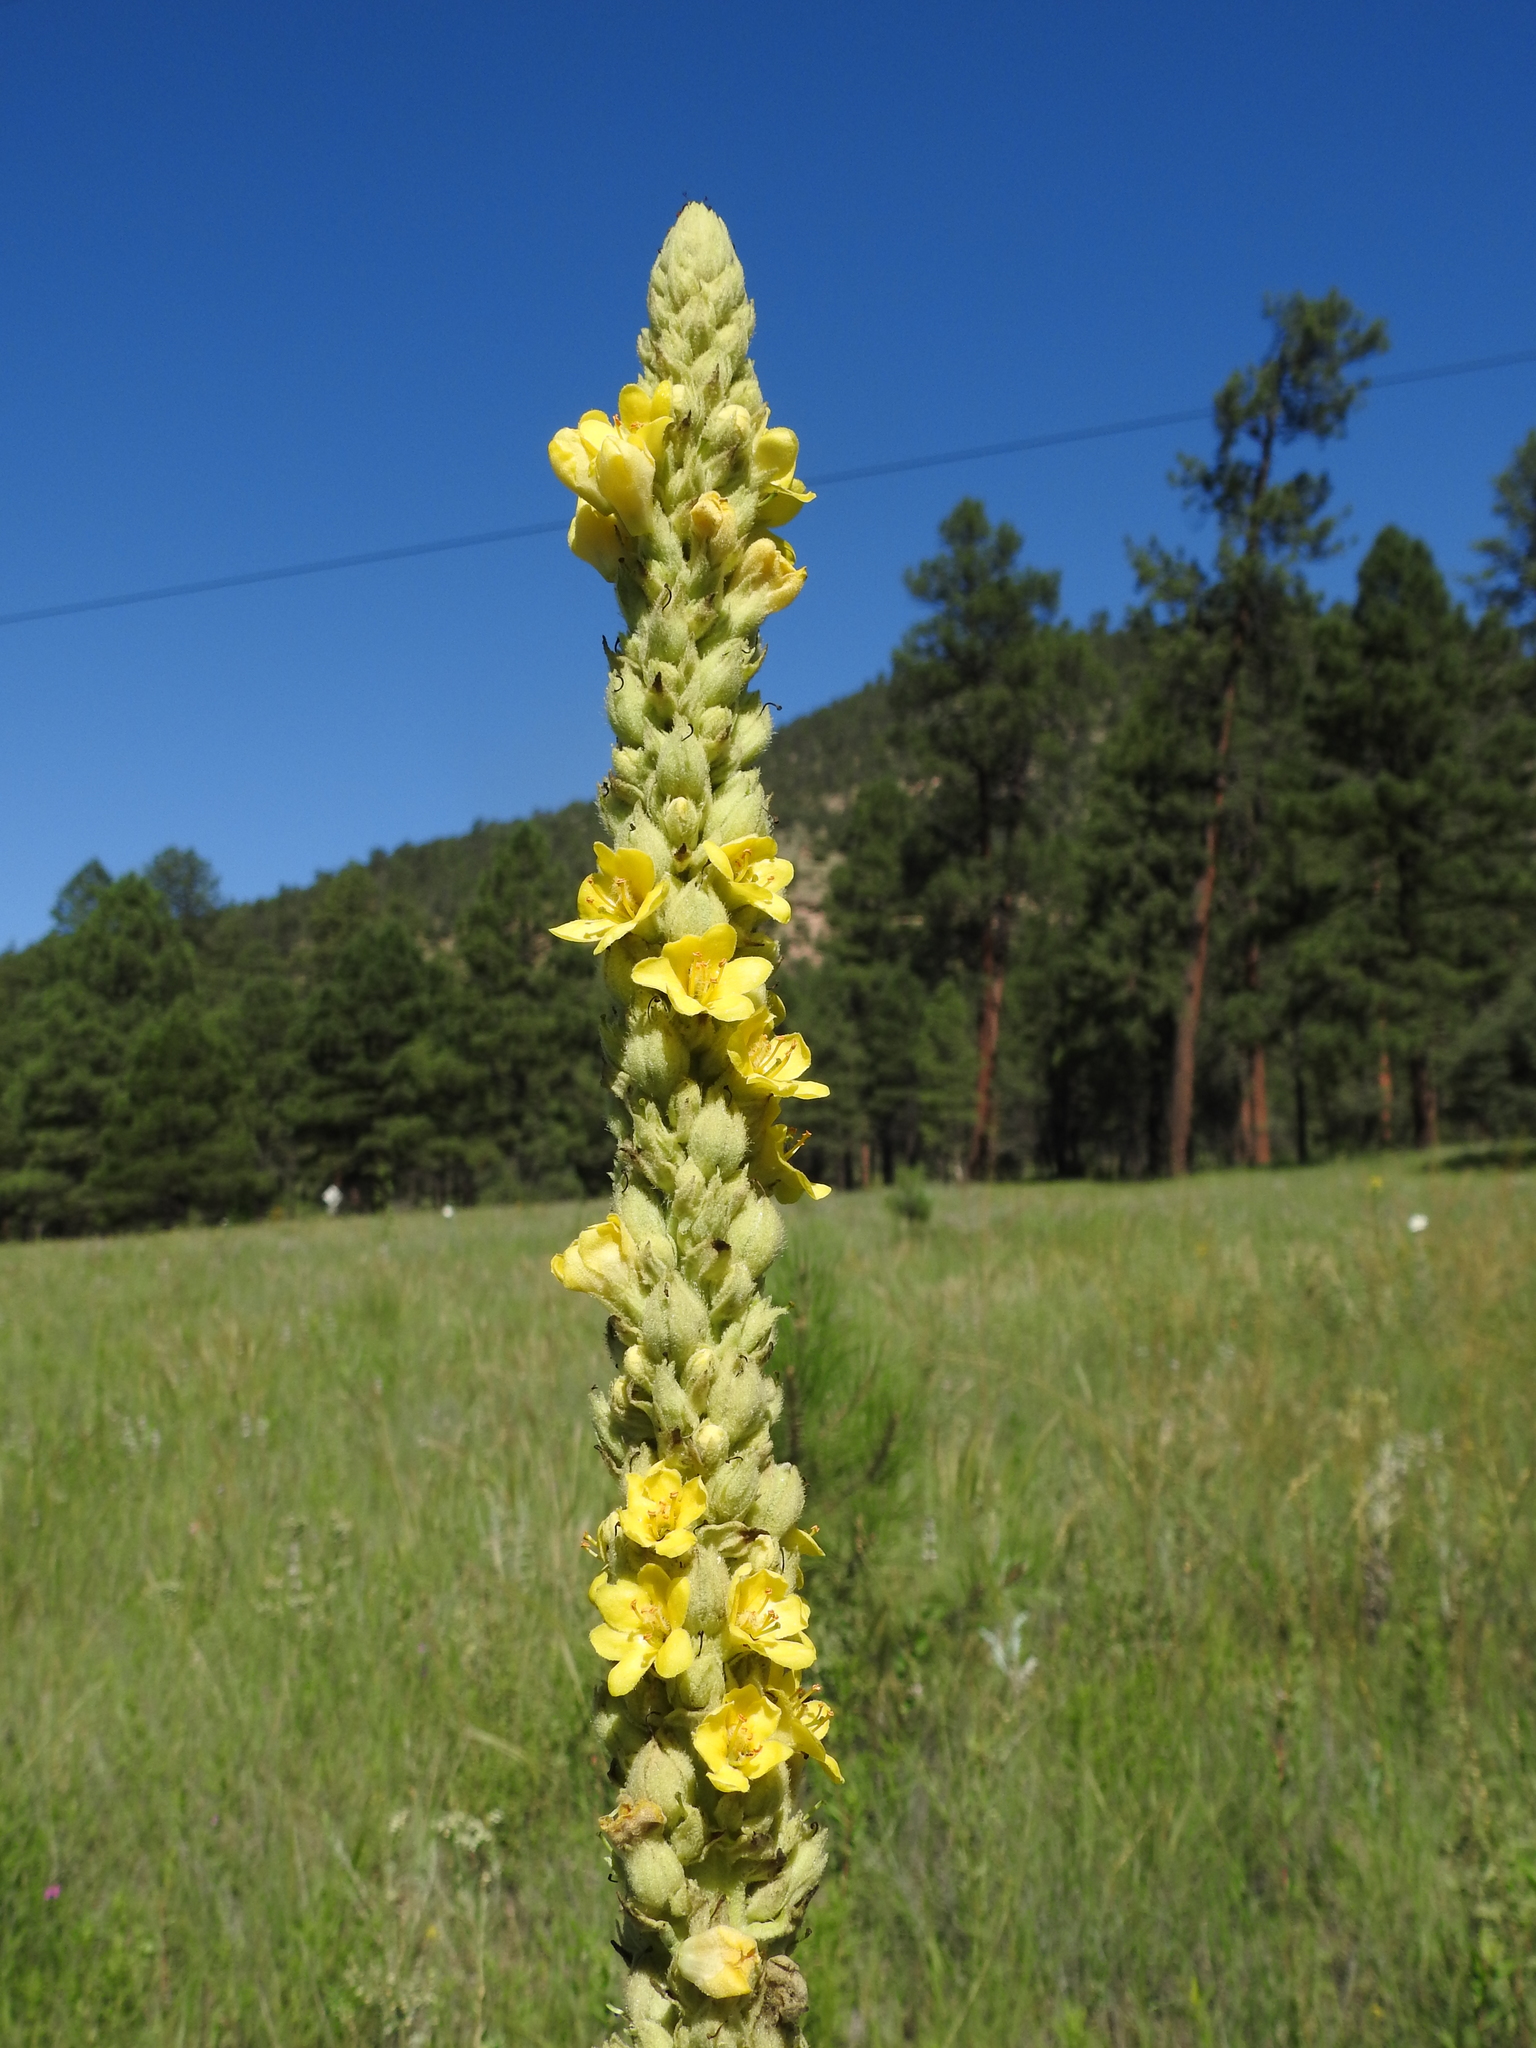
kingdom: Plantae
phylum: Tracheophyta
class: Magnoliopsida
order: Lamiales
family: Scrophulariaceae
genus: Verbascum
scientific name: Verbascum thapsus
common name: Common mullein
